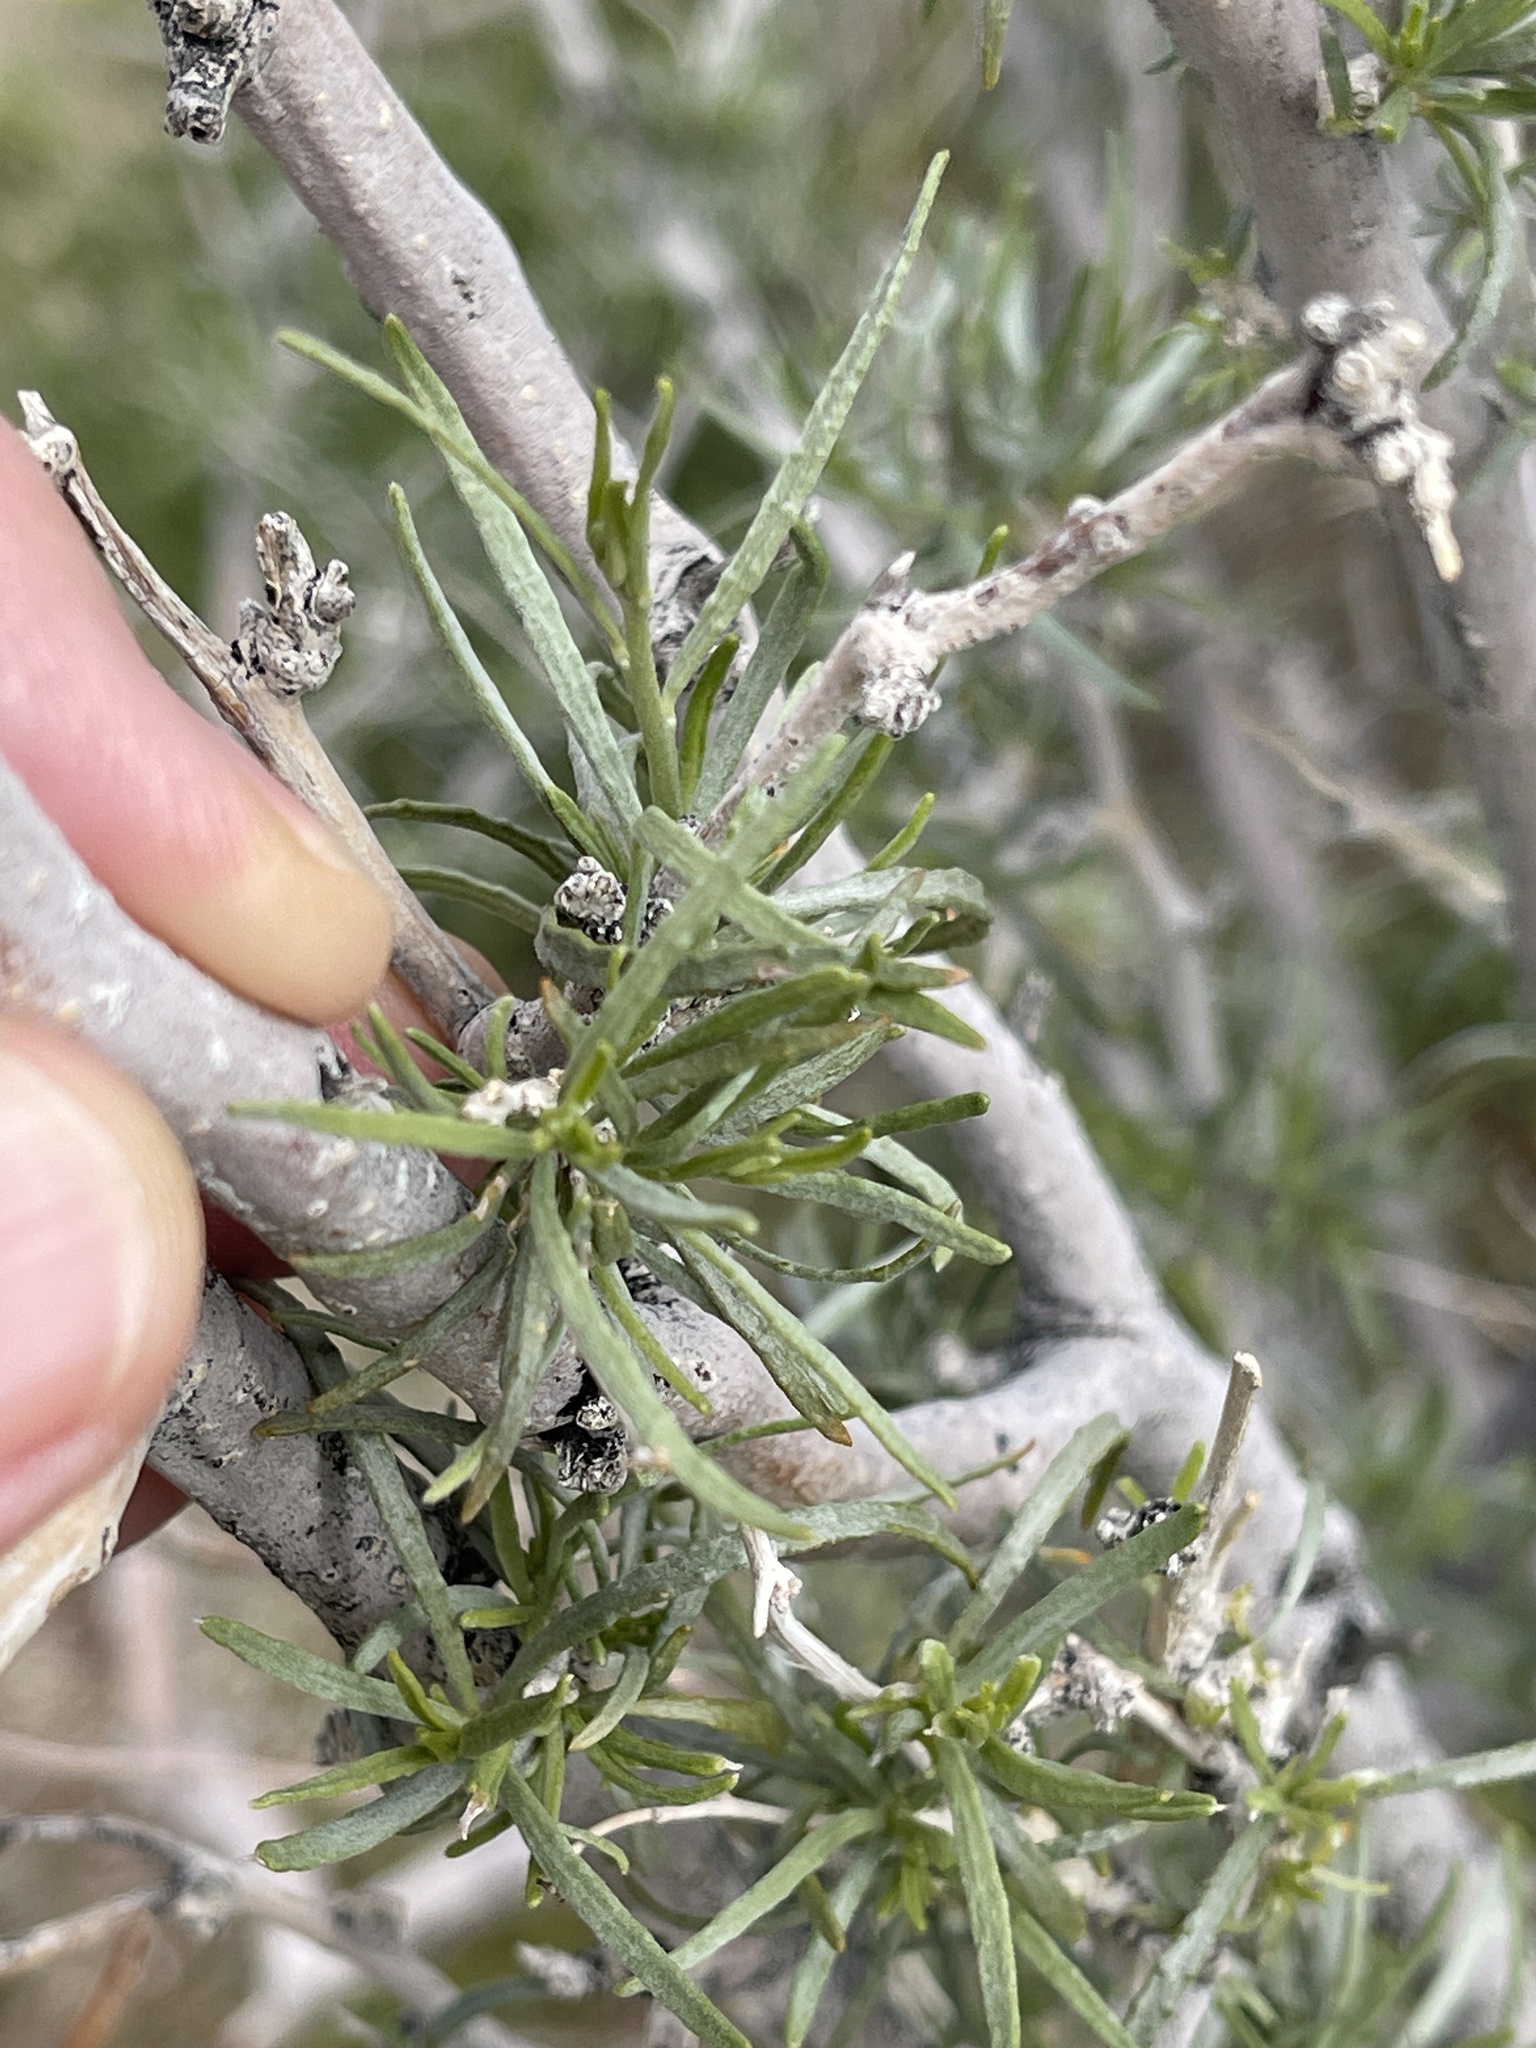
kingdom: Plantae
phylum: Tracheophyta
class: Magnoliopsida
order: Fabales
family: Fabaceae
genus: Psorothamnus
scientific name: Psorothamnus schottii
